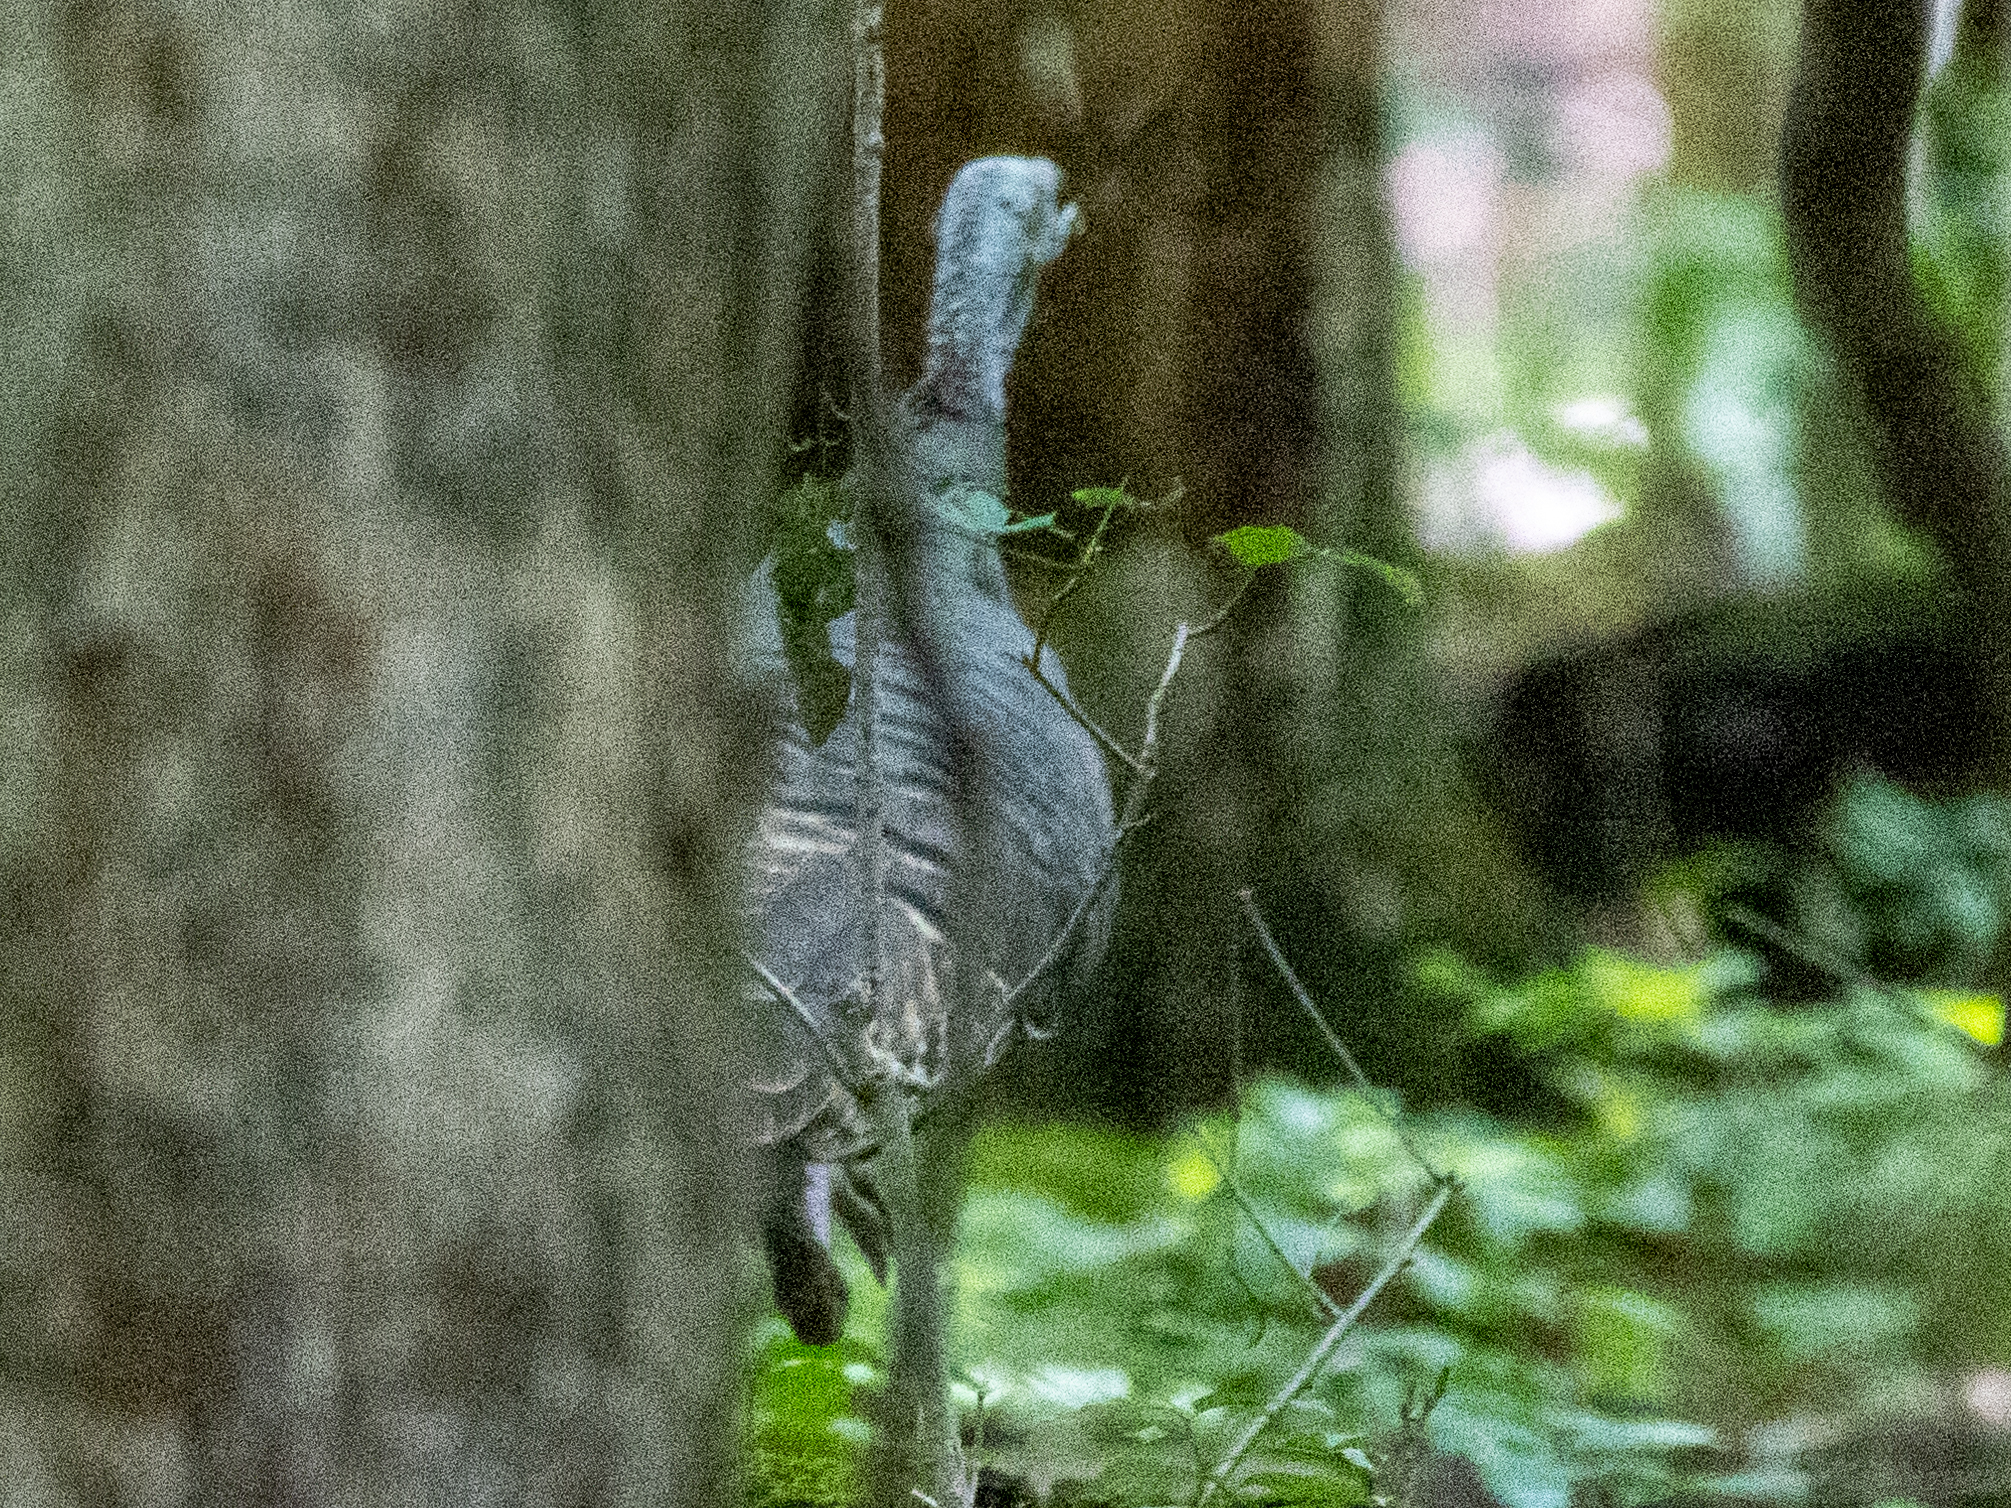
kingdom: Animalia
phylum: Chordata
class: Aves
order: Galliformes
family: Phasianidae
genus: Meleagris
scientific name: Meleagris gallopavo
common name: Wild turkey
